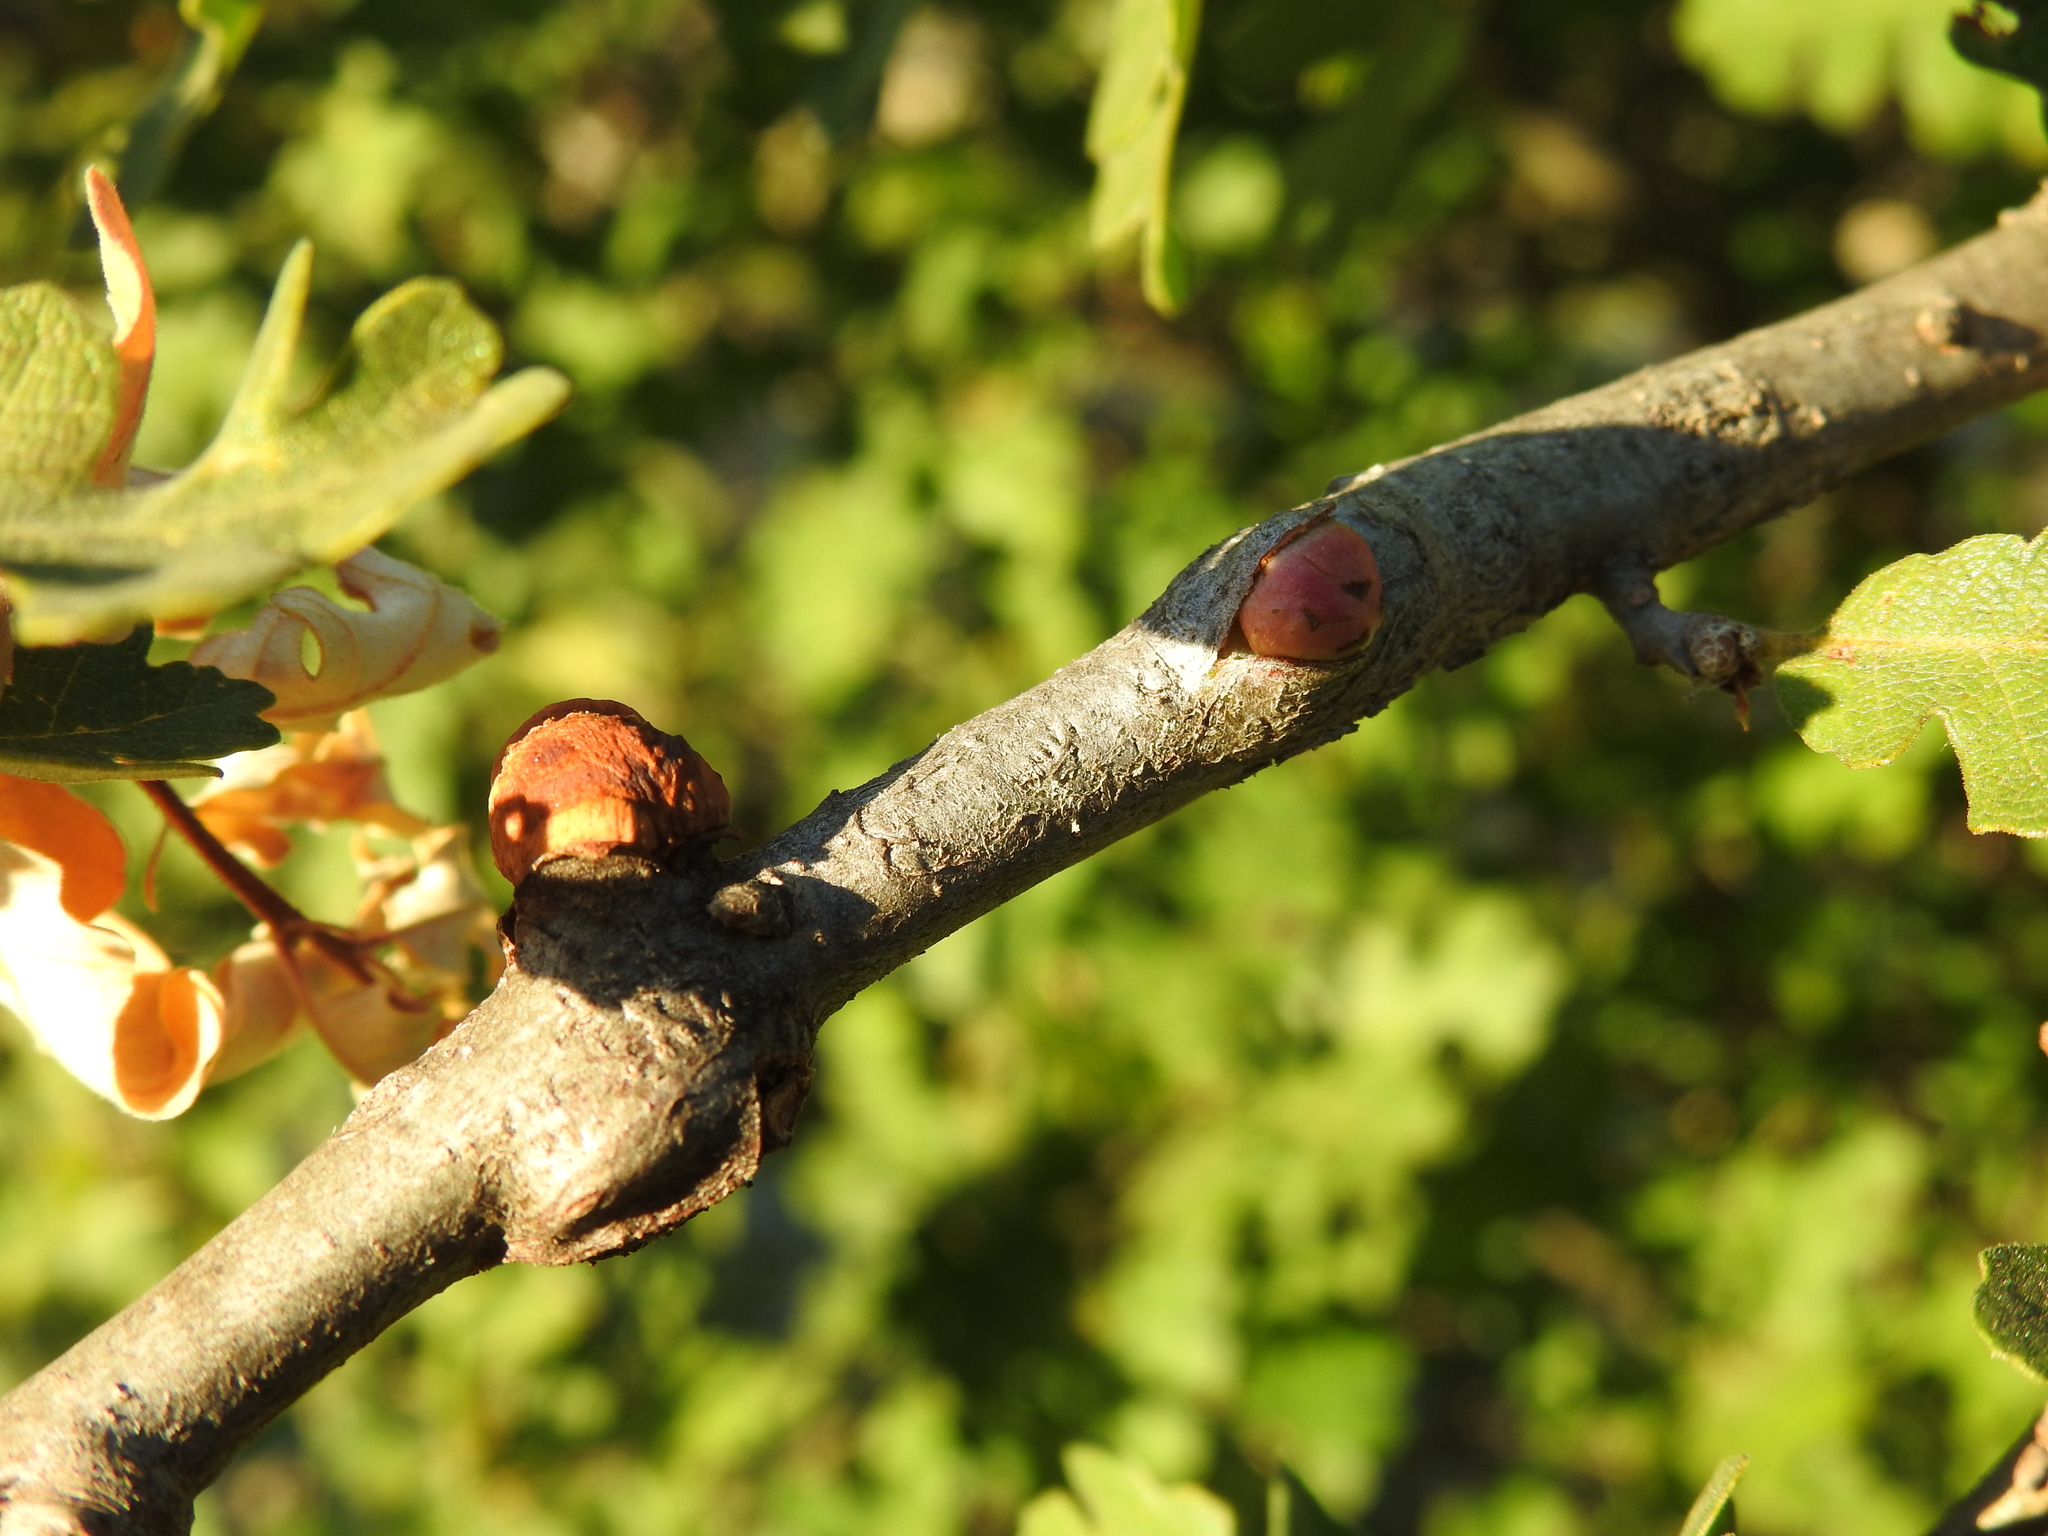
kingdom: Animalia
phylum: Arthropoda
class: Insecta
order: Hymenoptera
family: Cynipidae
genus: Andricus
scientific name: Andricus quercuscalifornicus
